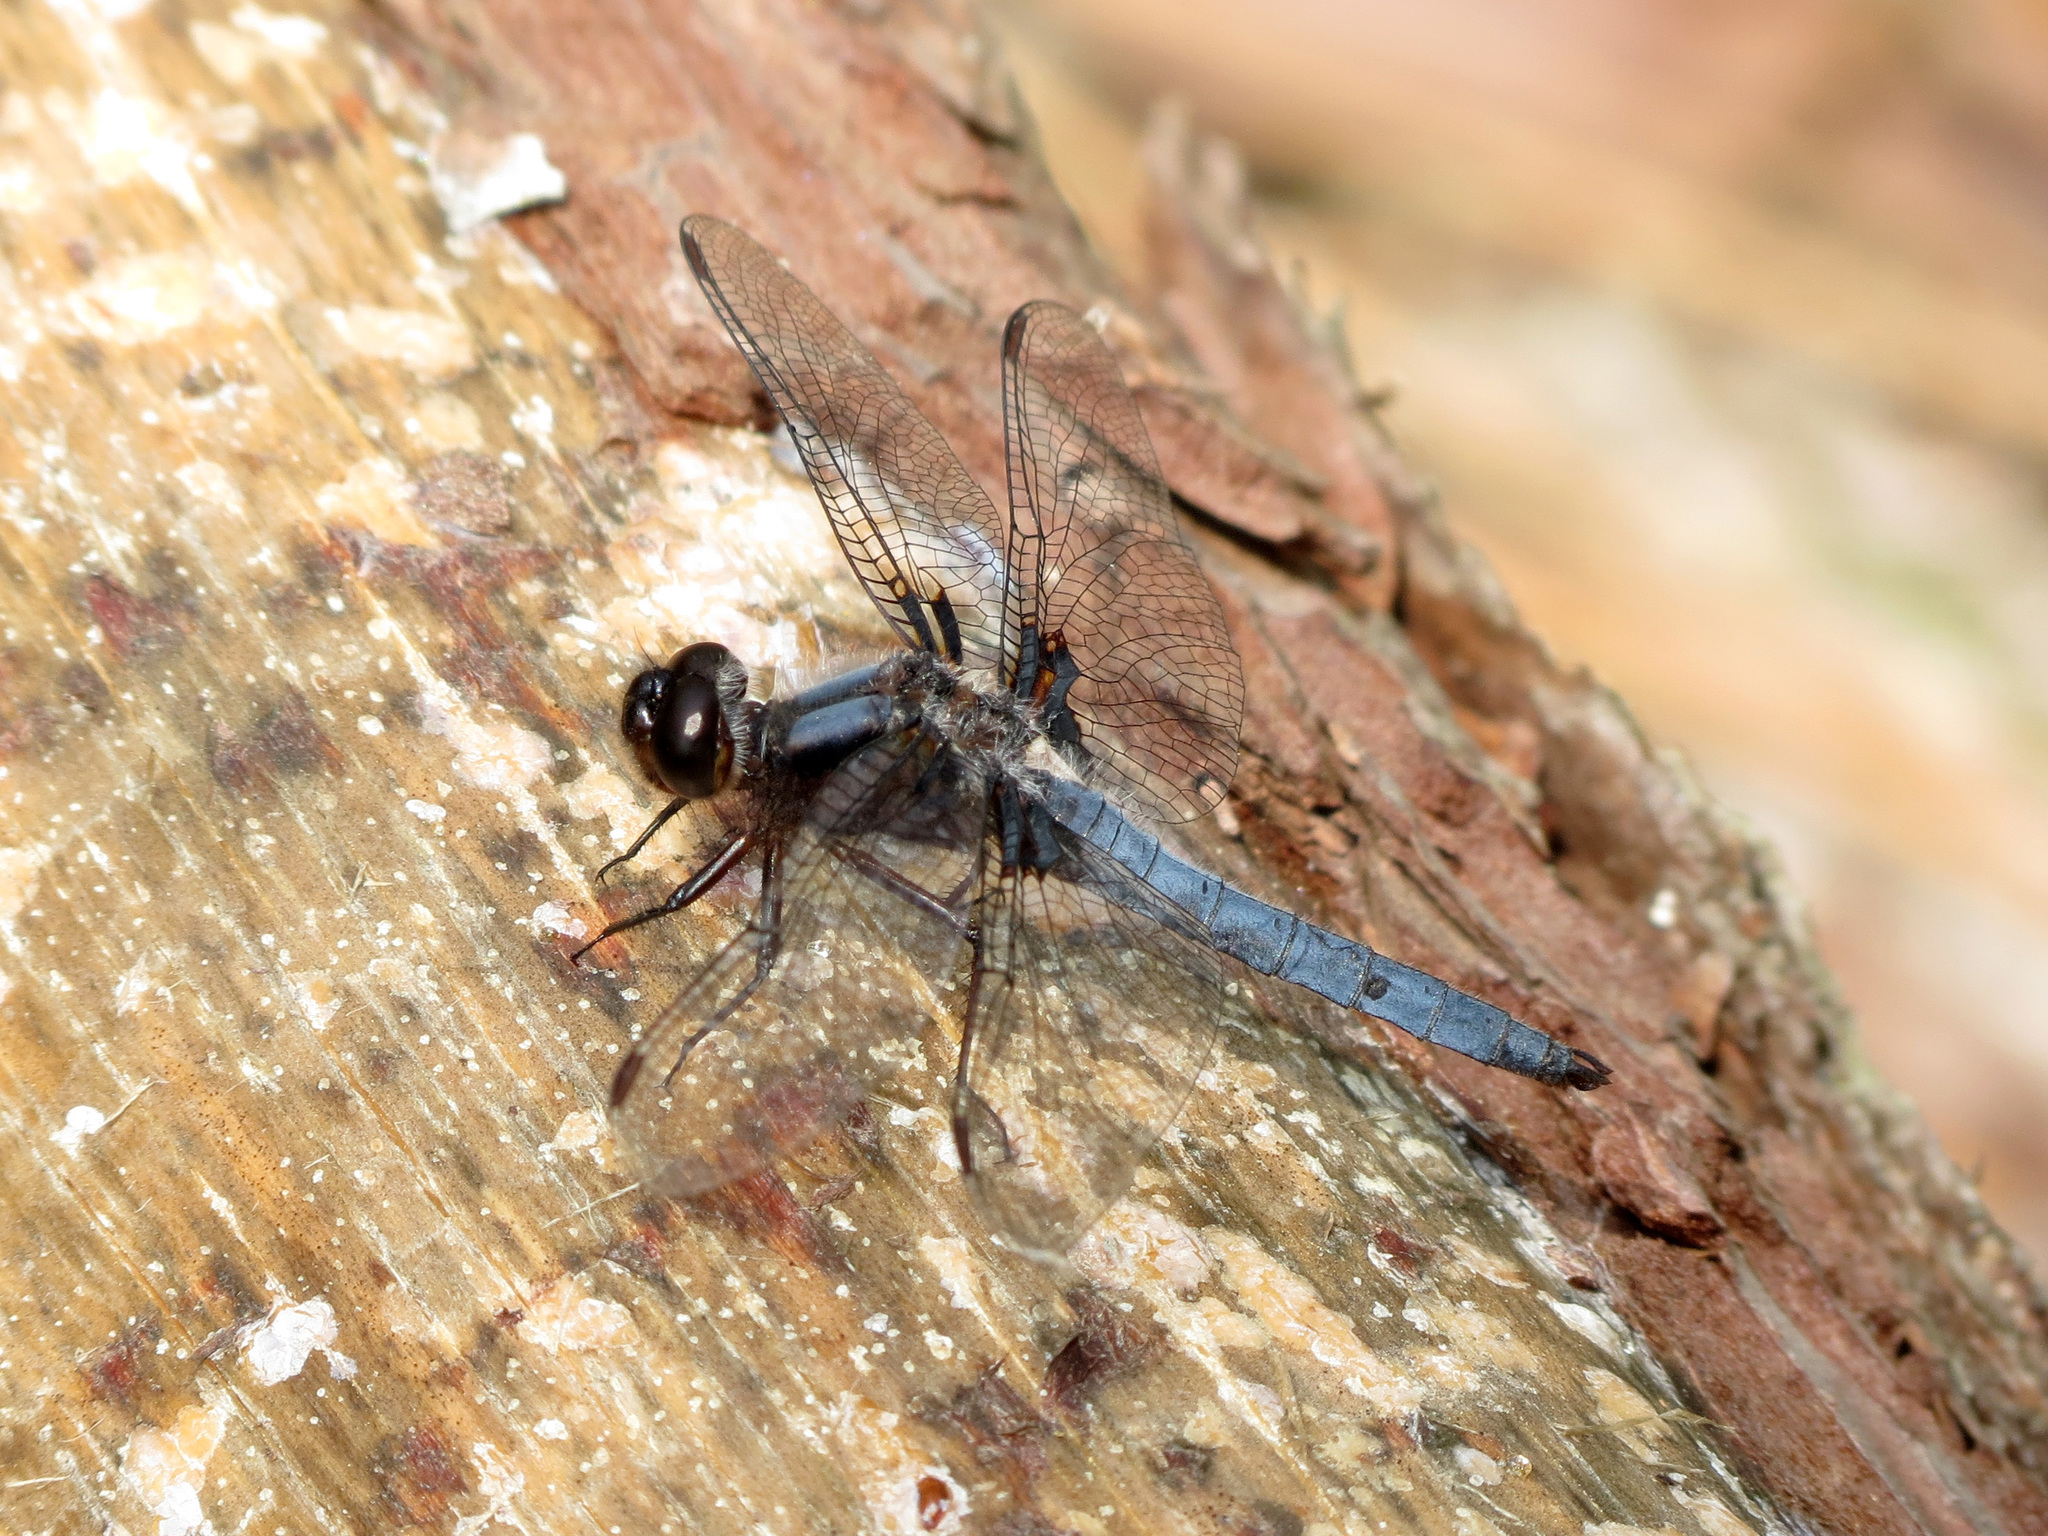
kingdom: Animalia
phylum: Arthropoda
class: Insecta
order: Odonata
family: Libellulidae
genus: Ladona
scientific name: Ladona deplanata
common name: Blue corporal
